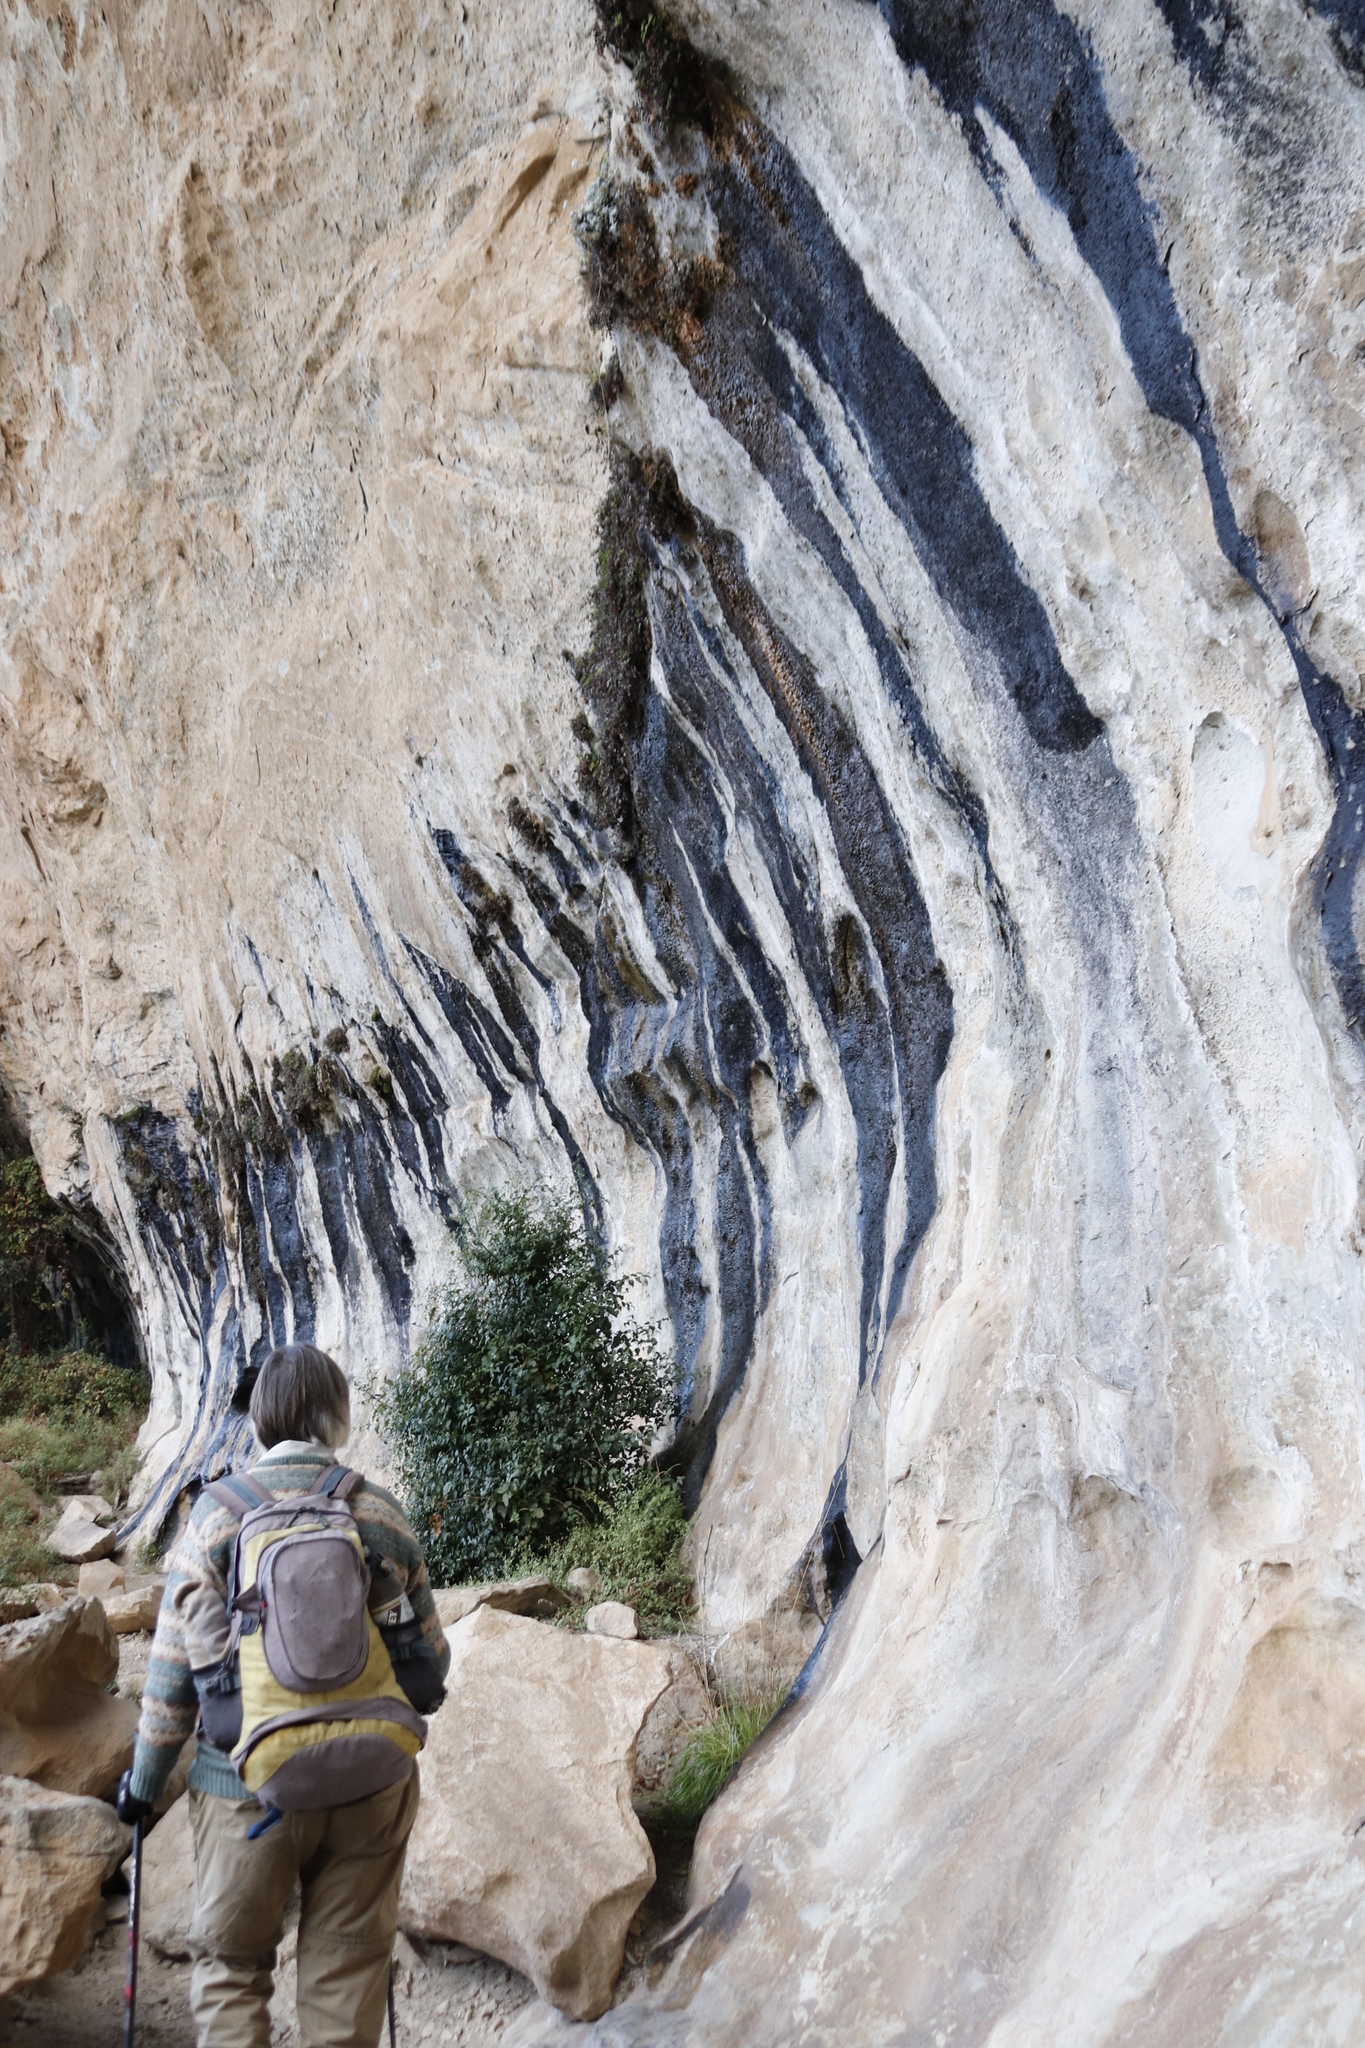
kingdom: Plantae
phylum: Tracheophyta
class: Magnoliopsida
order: Lamiales
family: Stilbaceae
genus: Halleria
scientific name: Halleria lucida
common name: Tree fuschia
